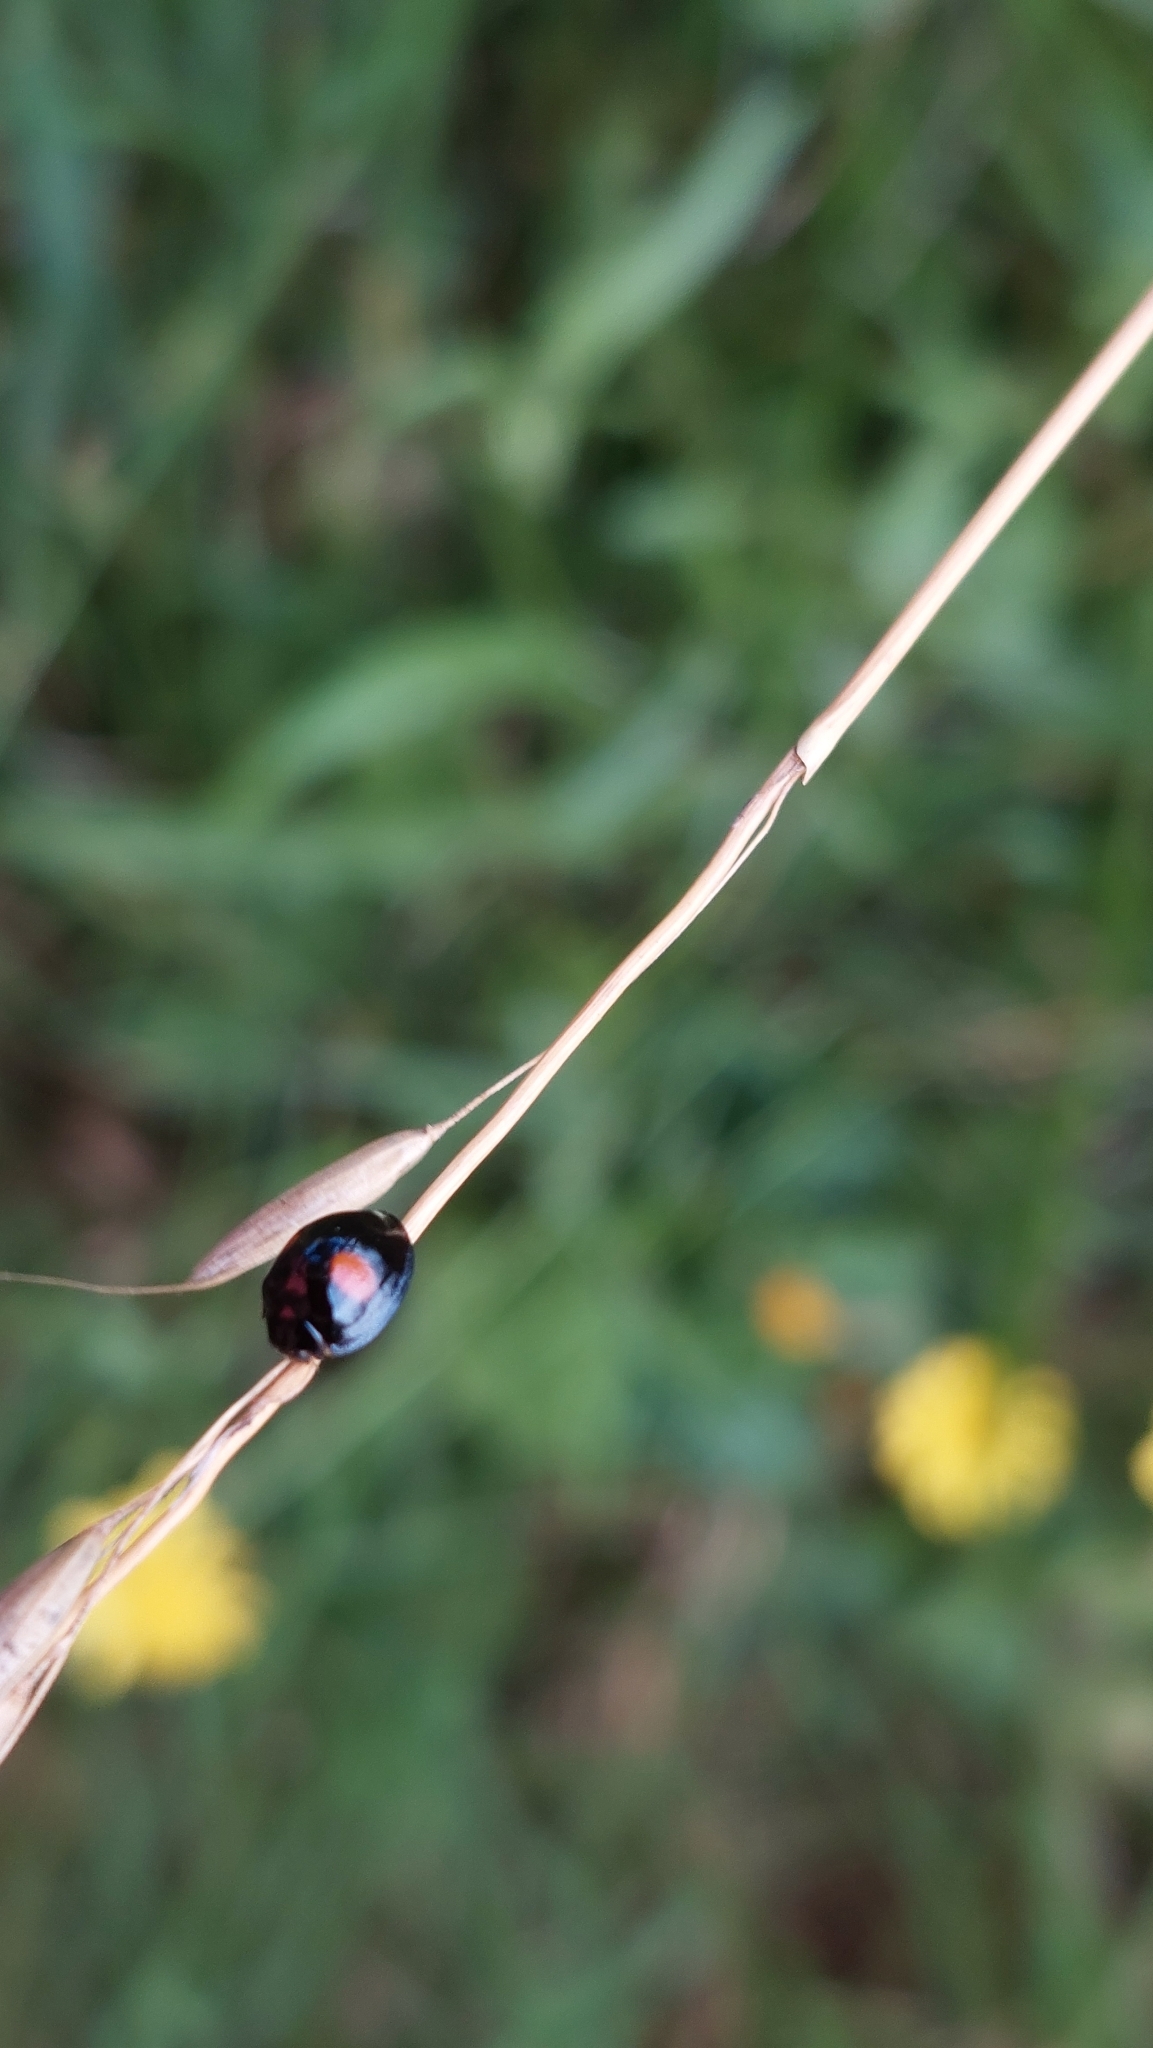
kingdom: Animalia
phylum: Arthropoda
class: Insecta
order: Coleoptera
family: Coccinellidae
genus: Chilocorus
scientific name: Chilocorus renipustulatus
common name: Kidney-spot ladybird
